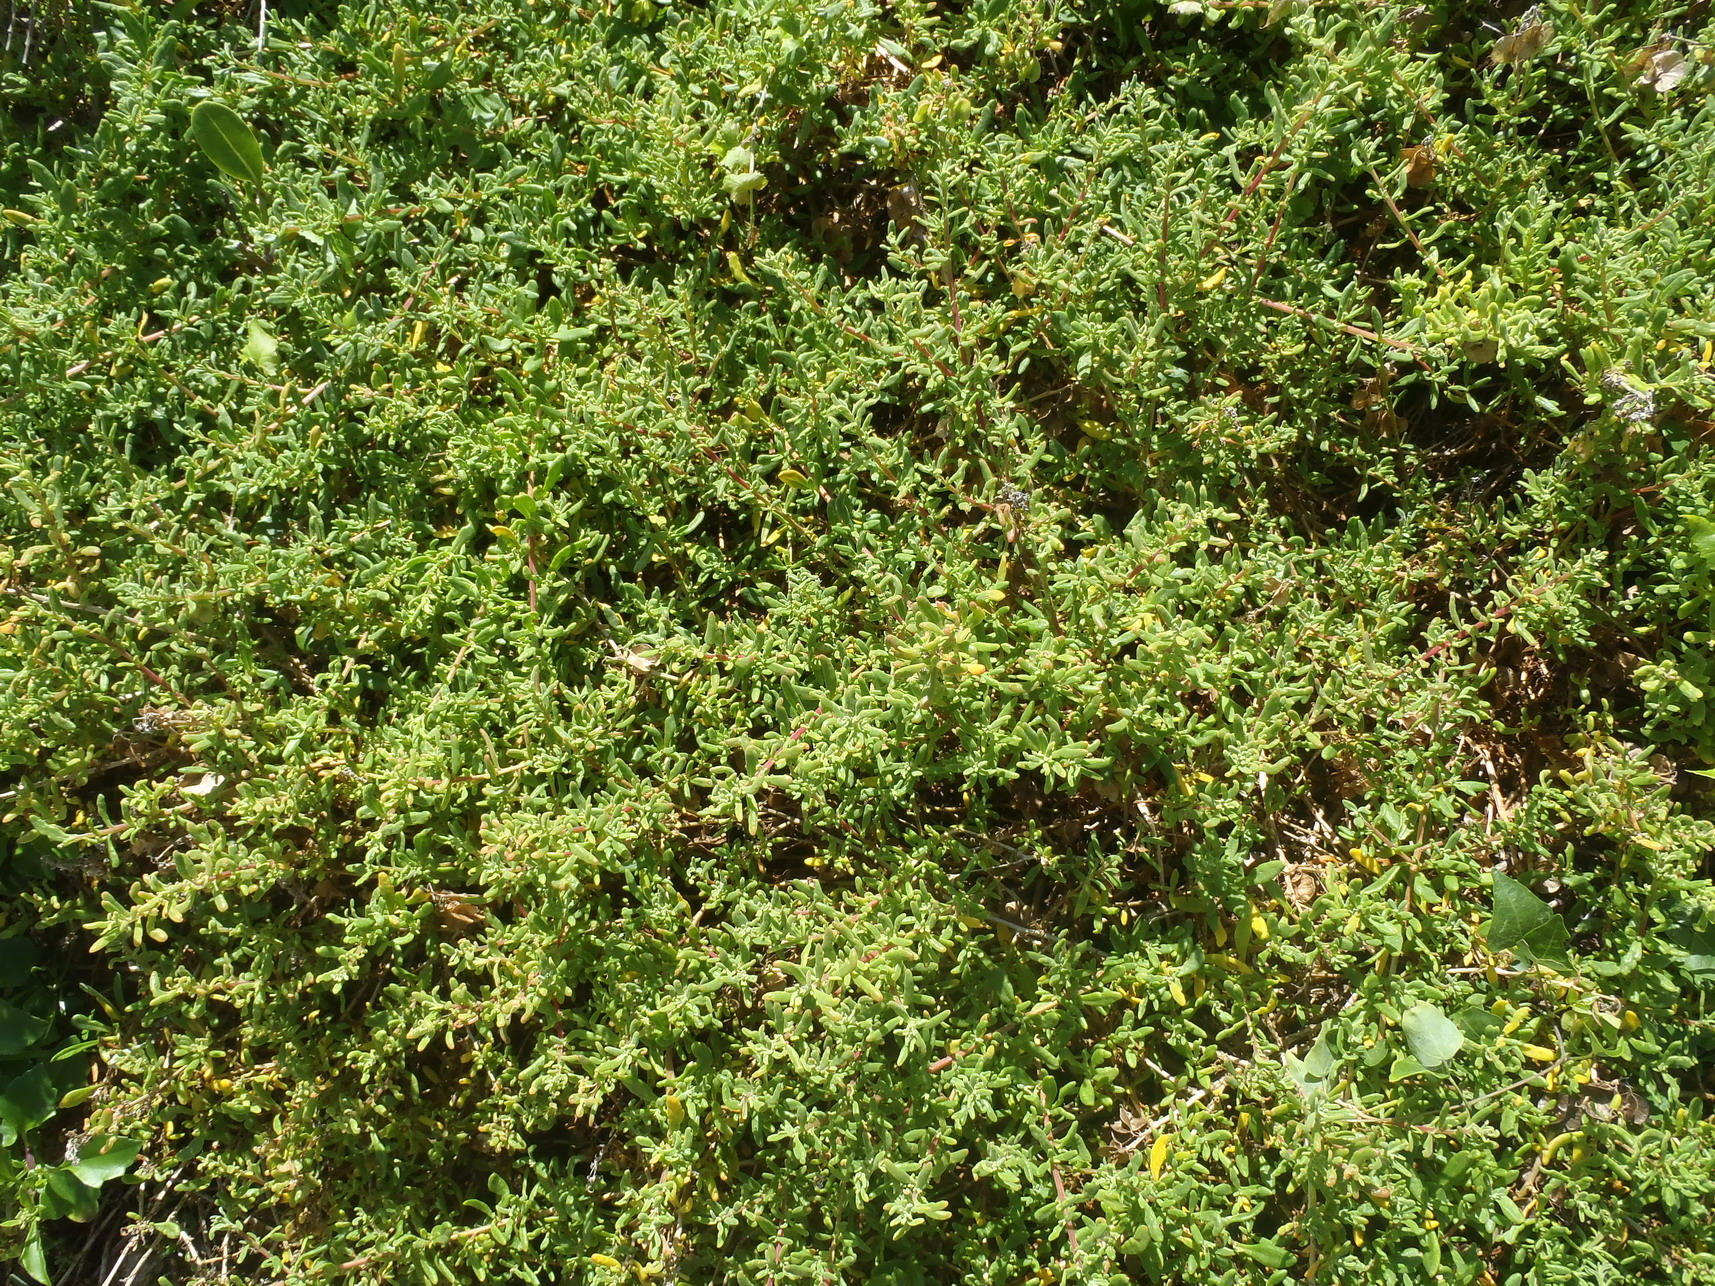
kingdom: Plantae
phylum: Tracheophyta
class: Magnoliopsida
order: Caryophyllales
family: Aizoaceae
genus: Tetragonia
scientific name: Tetragonia fruticosa
